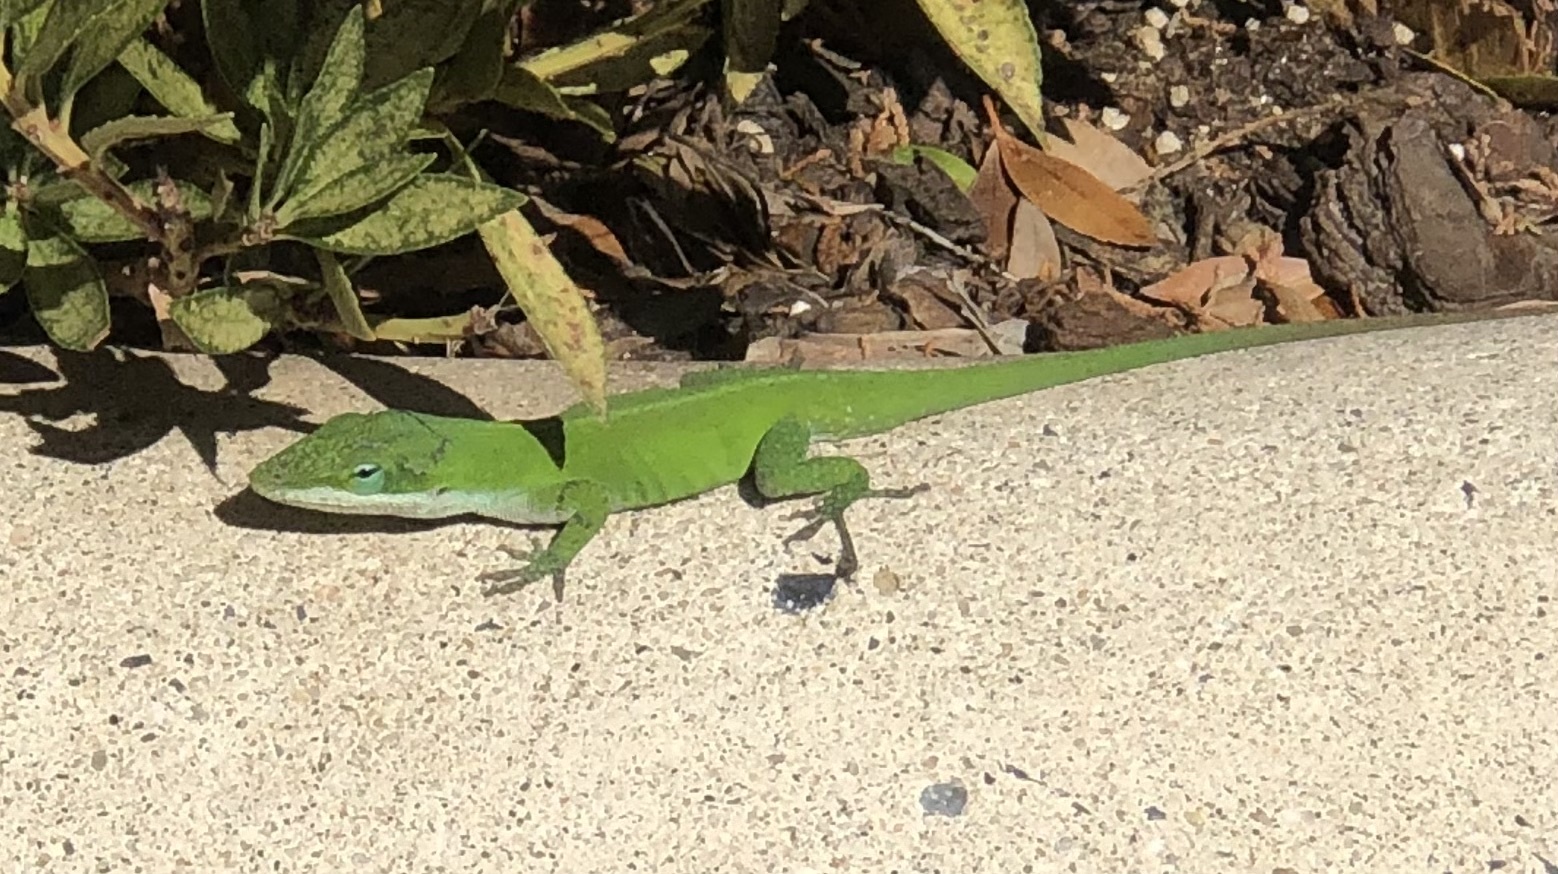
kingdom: Animalia
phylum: Chordata
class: Squamata
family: Dactyloidae
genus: Anolis
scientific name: Anolis carolinensis
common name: Green anole
